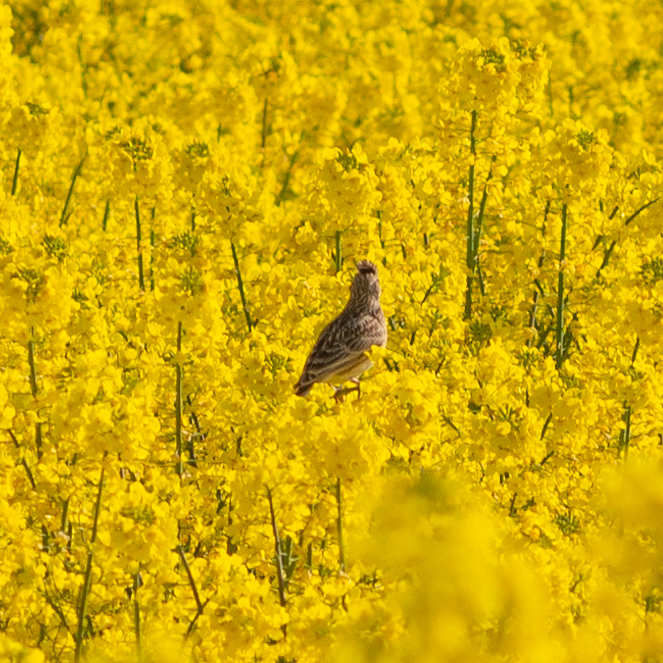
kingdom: Animalia
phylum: Chordata
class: Aves
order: Passeriformes
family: Alaudidae
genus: Alauda
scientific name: Alauda arvensis
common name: Eurasian skylark
